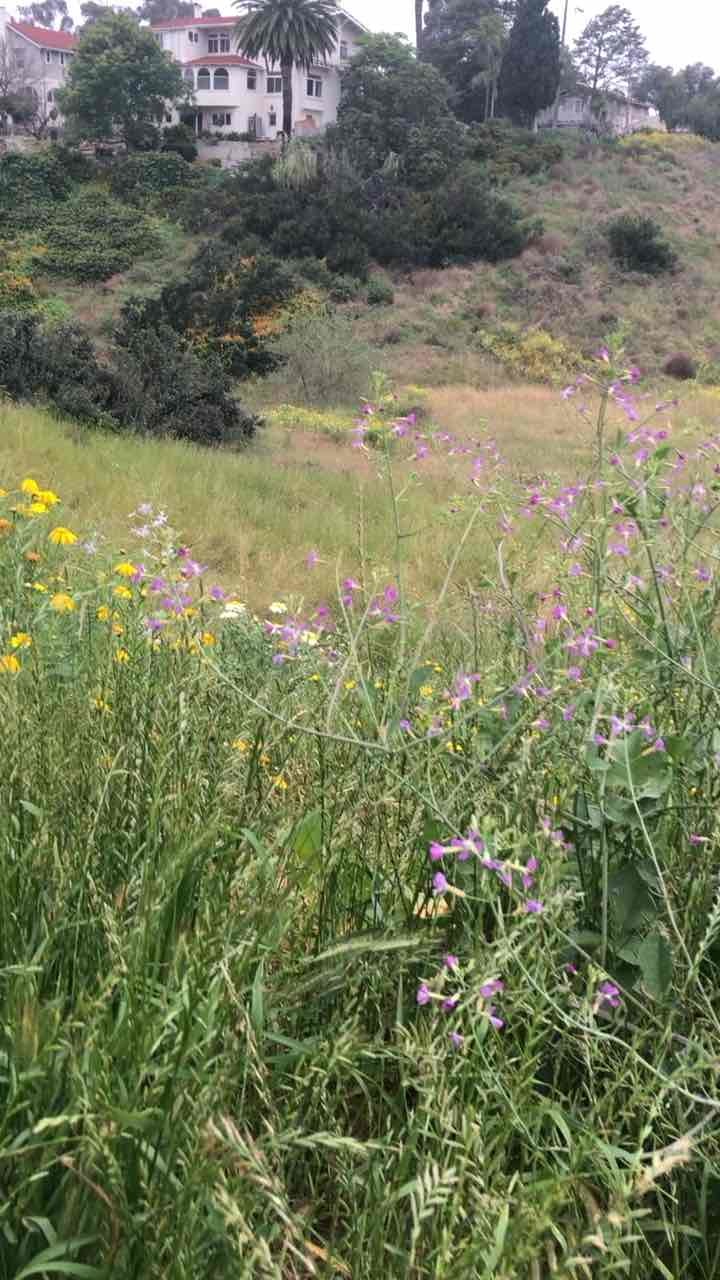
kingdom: Plantae
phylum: Tracheophyta
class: Magnoliopsida
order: Brassicales
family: Brassicaceae
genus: Raphanus
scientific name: Raphanus sativus
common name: Cultivated radish
